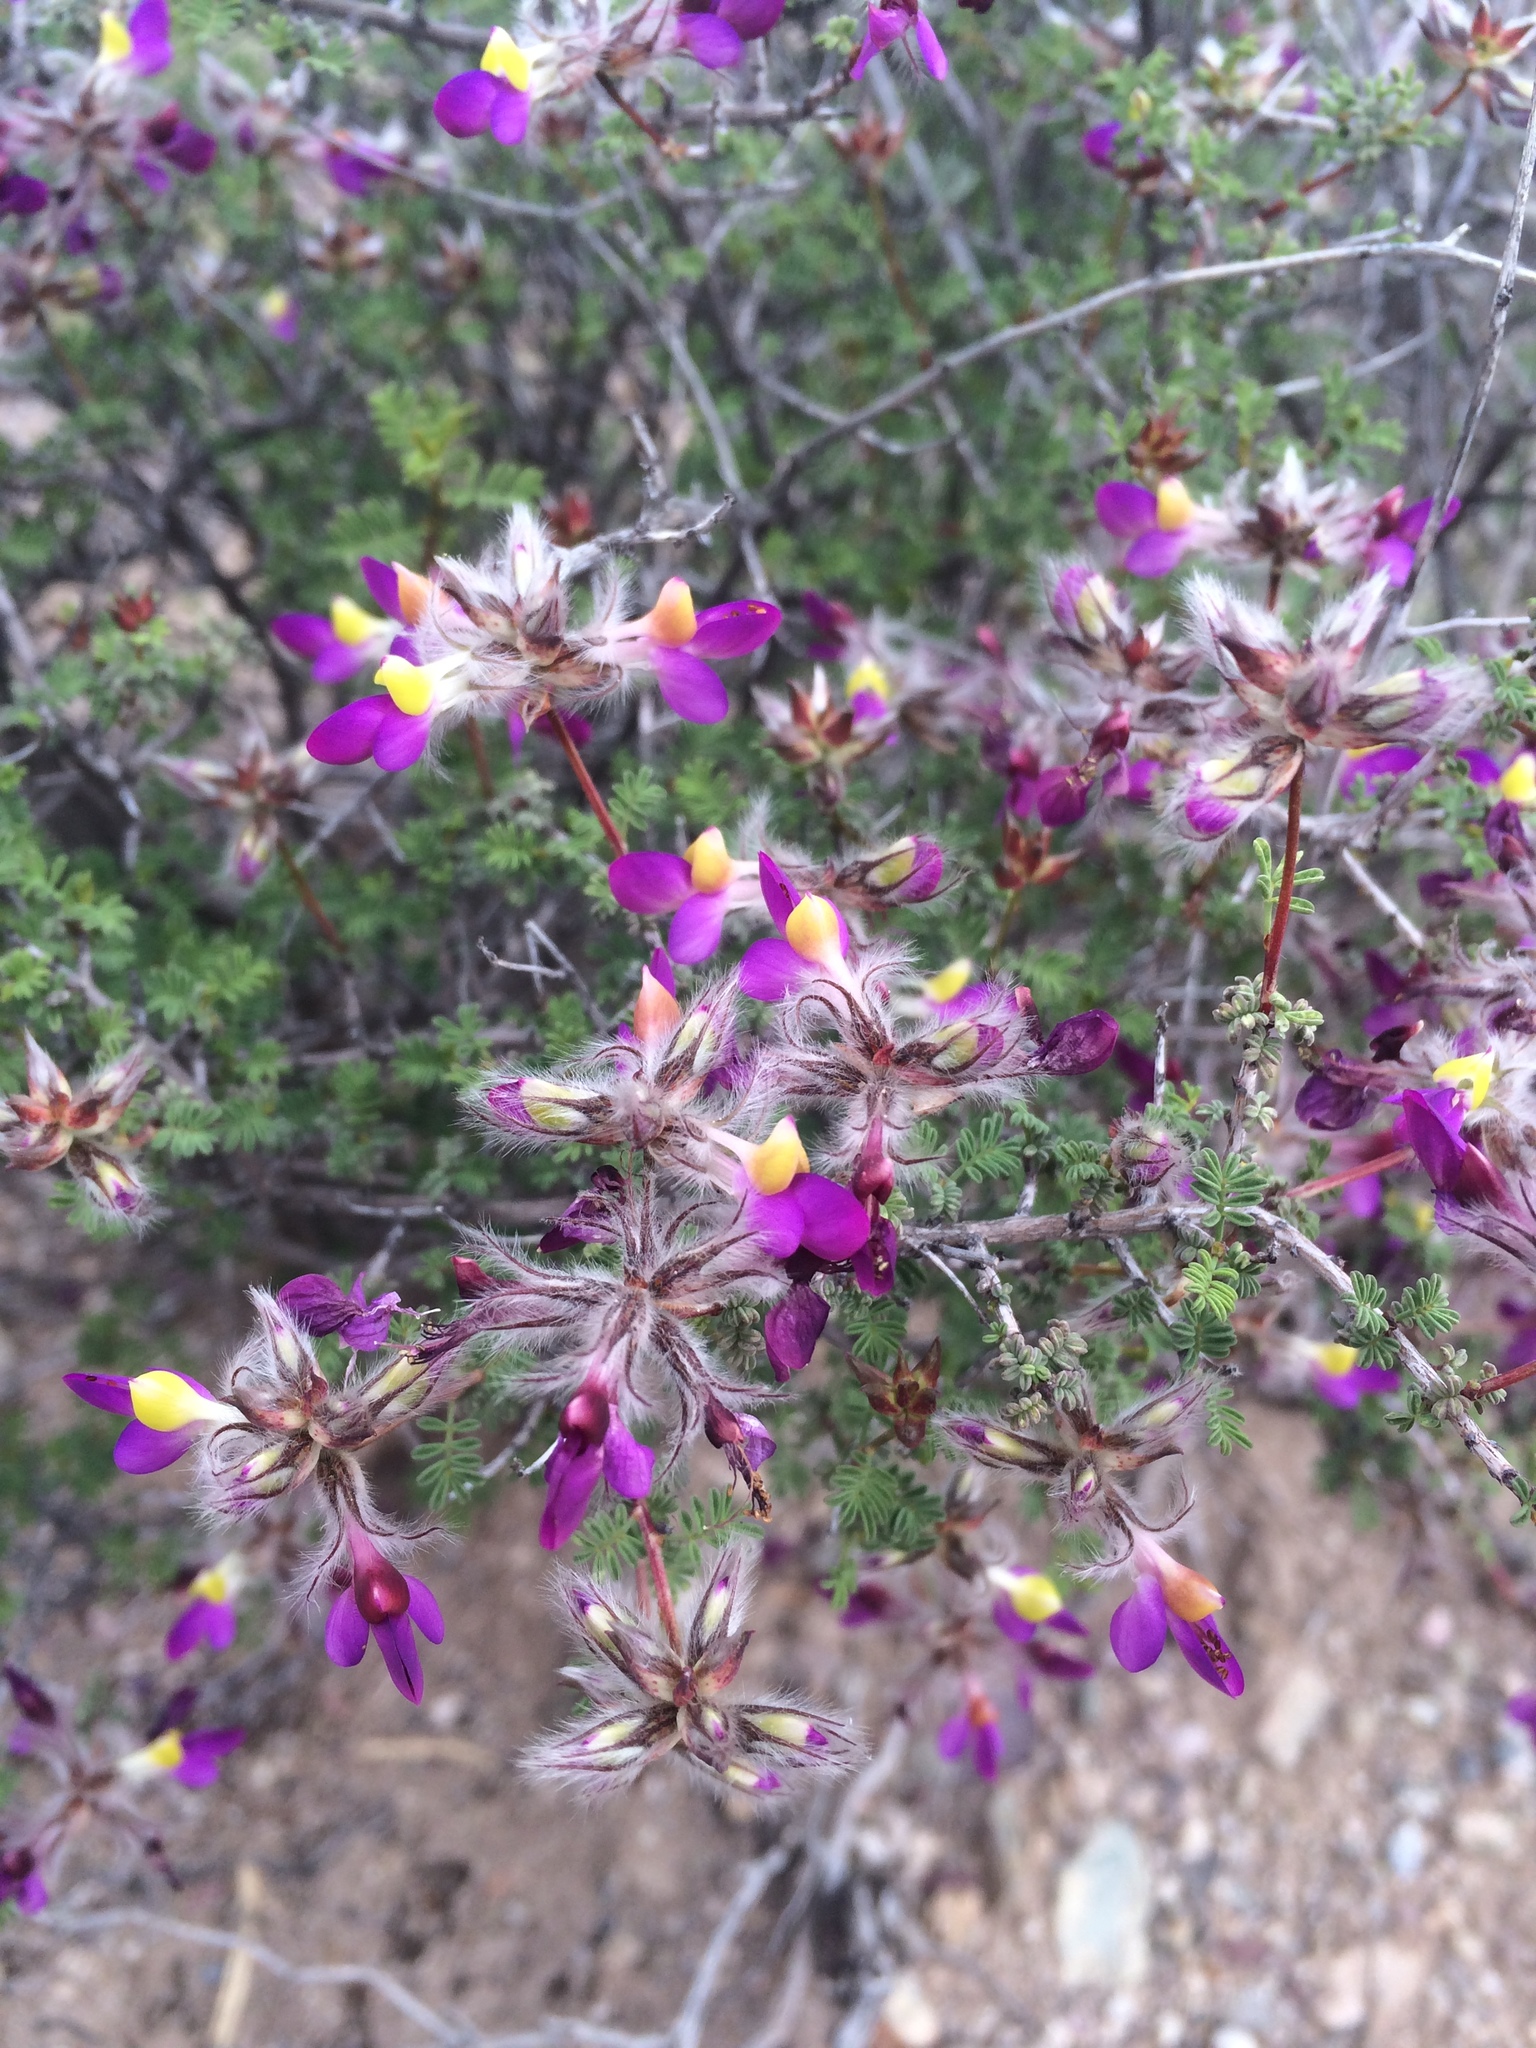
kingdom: Plantae
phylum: Tracheophyta
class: Magnoliopsida
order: Fabales
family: Fabaceae
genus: Dalea
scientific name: Dalea formosa
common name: Feather-plume dalea
